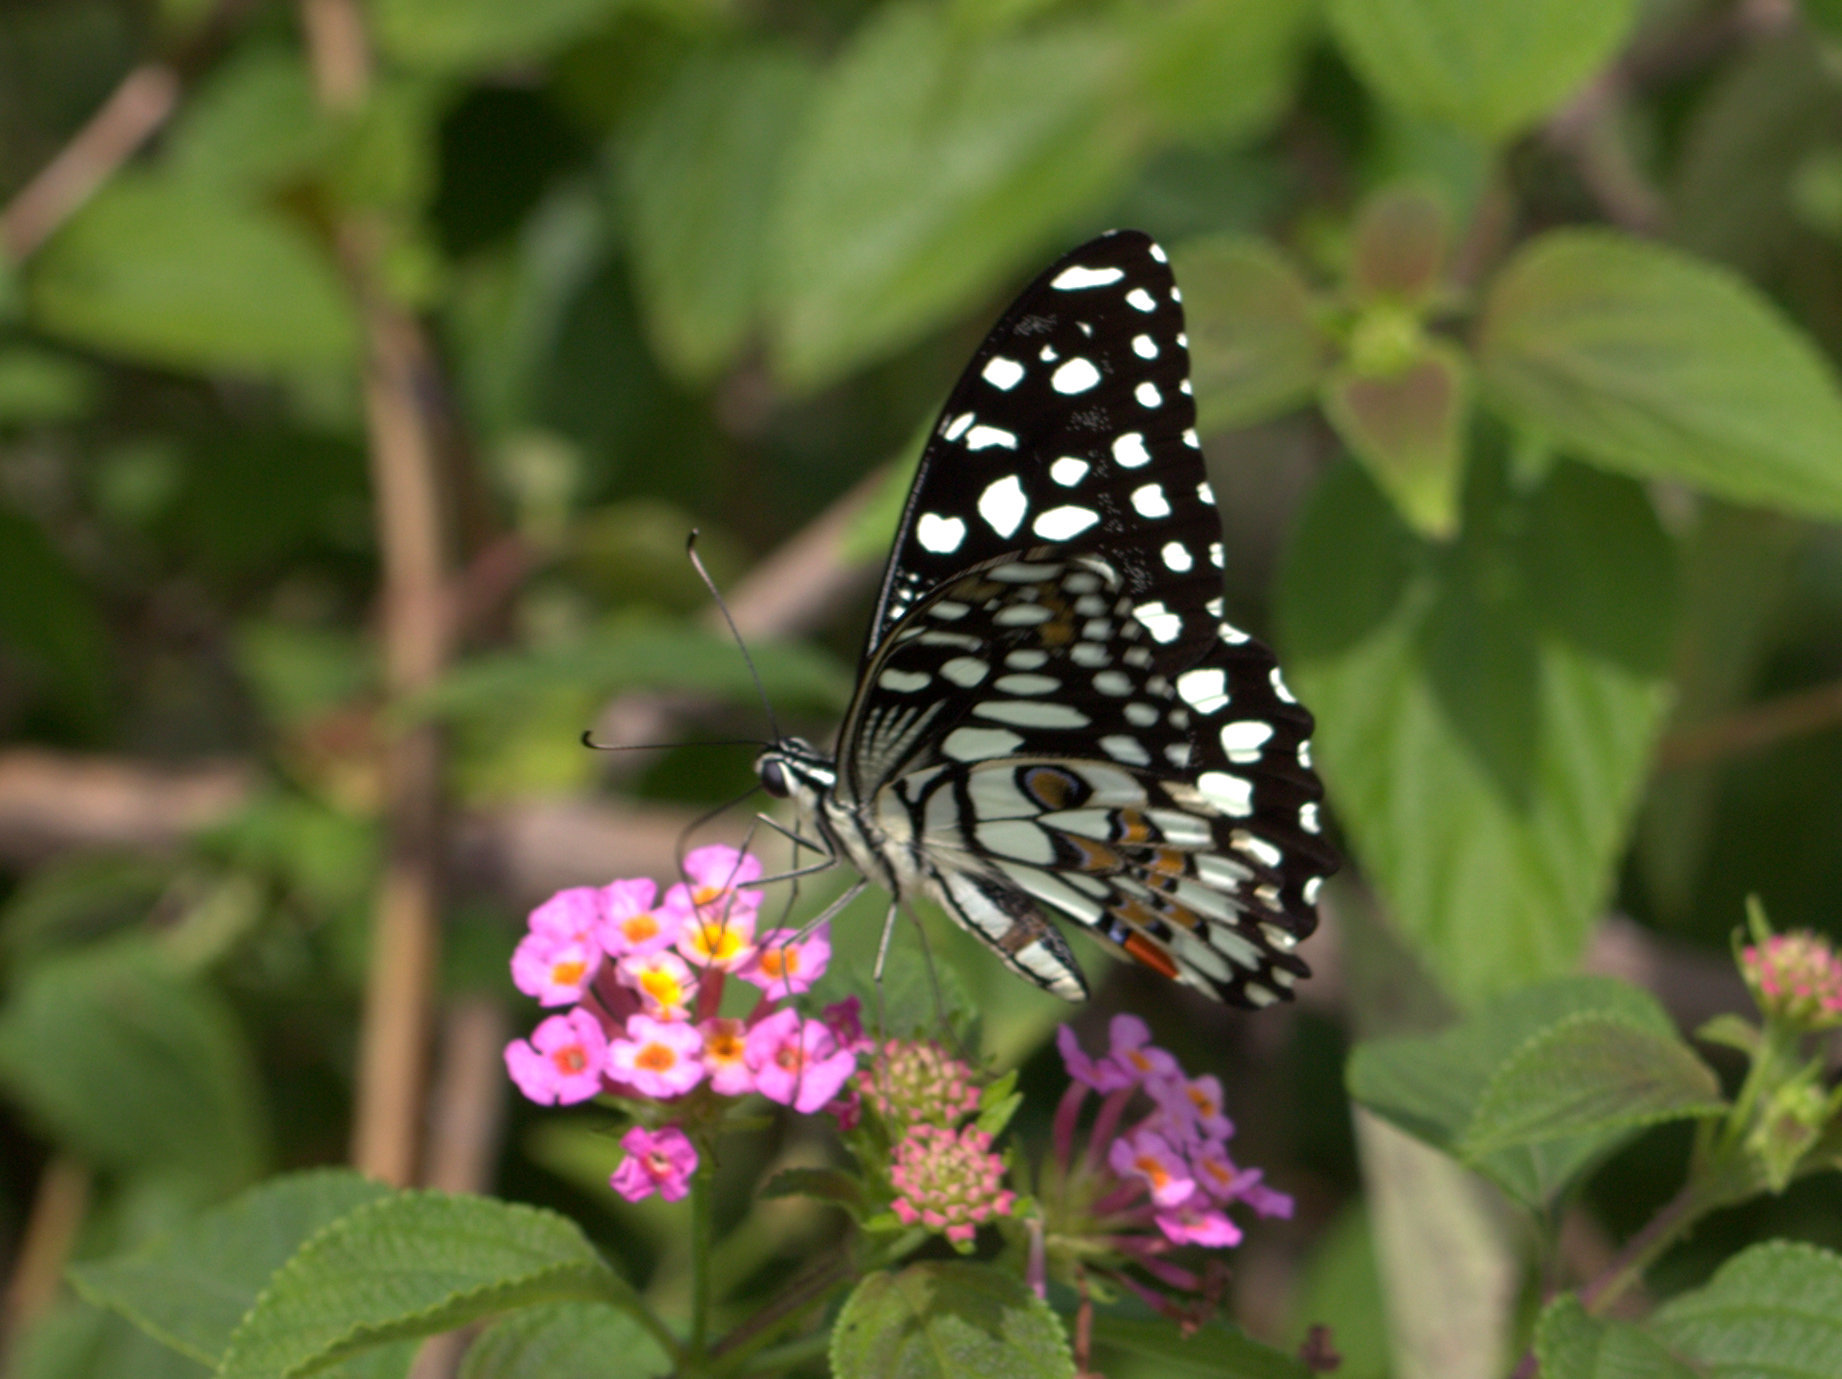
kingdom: Animalia
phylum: Arthropoda
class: Insecta
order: Lepidoptera
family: Papilionidae
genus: Papilio
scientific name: Papilio demoleus
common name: Lime butterfly
